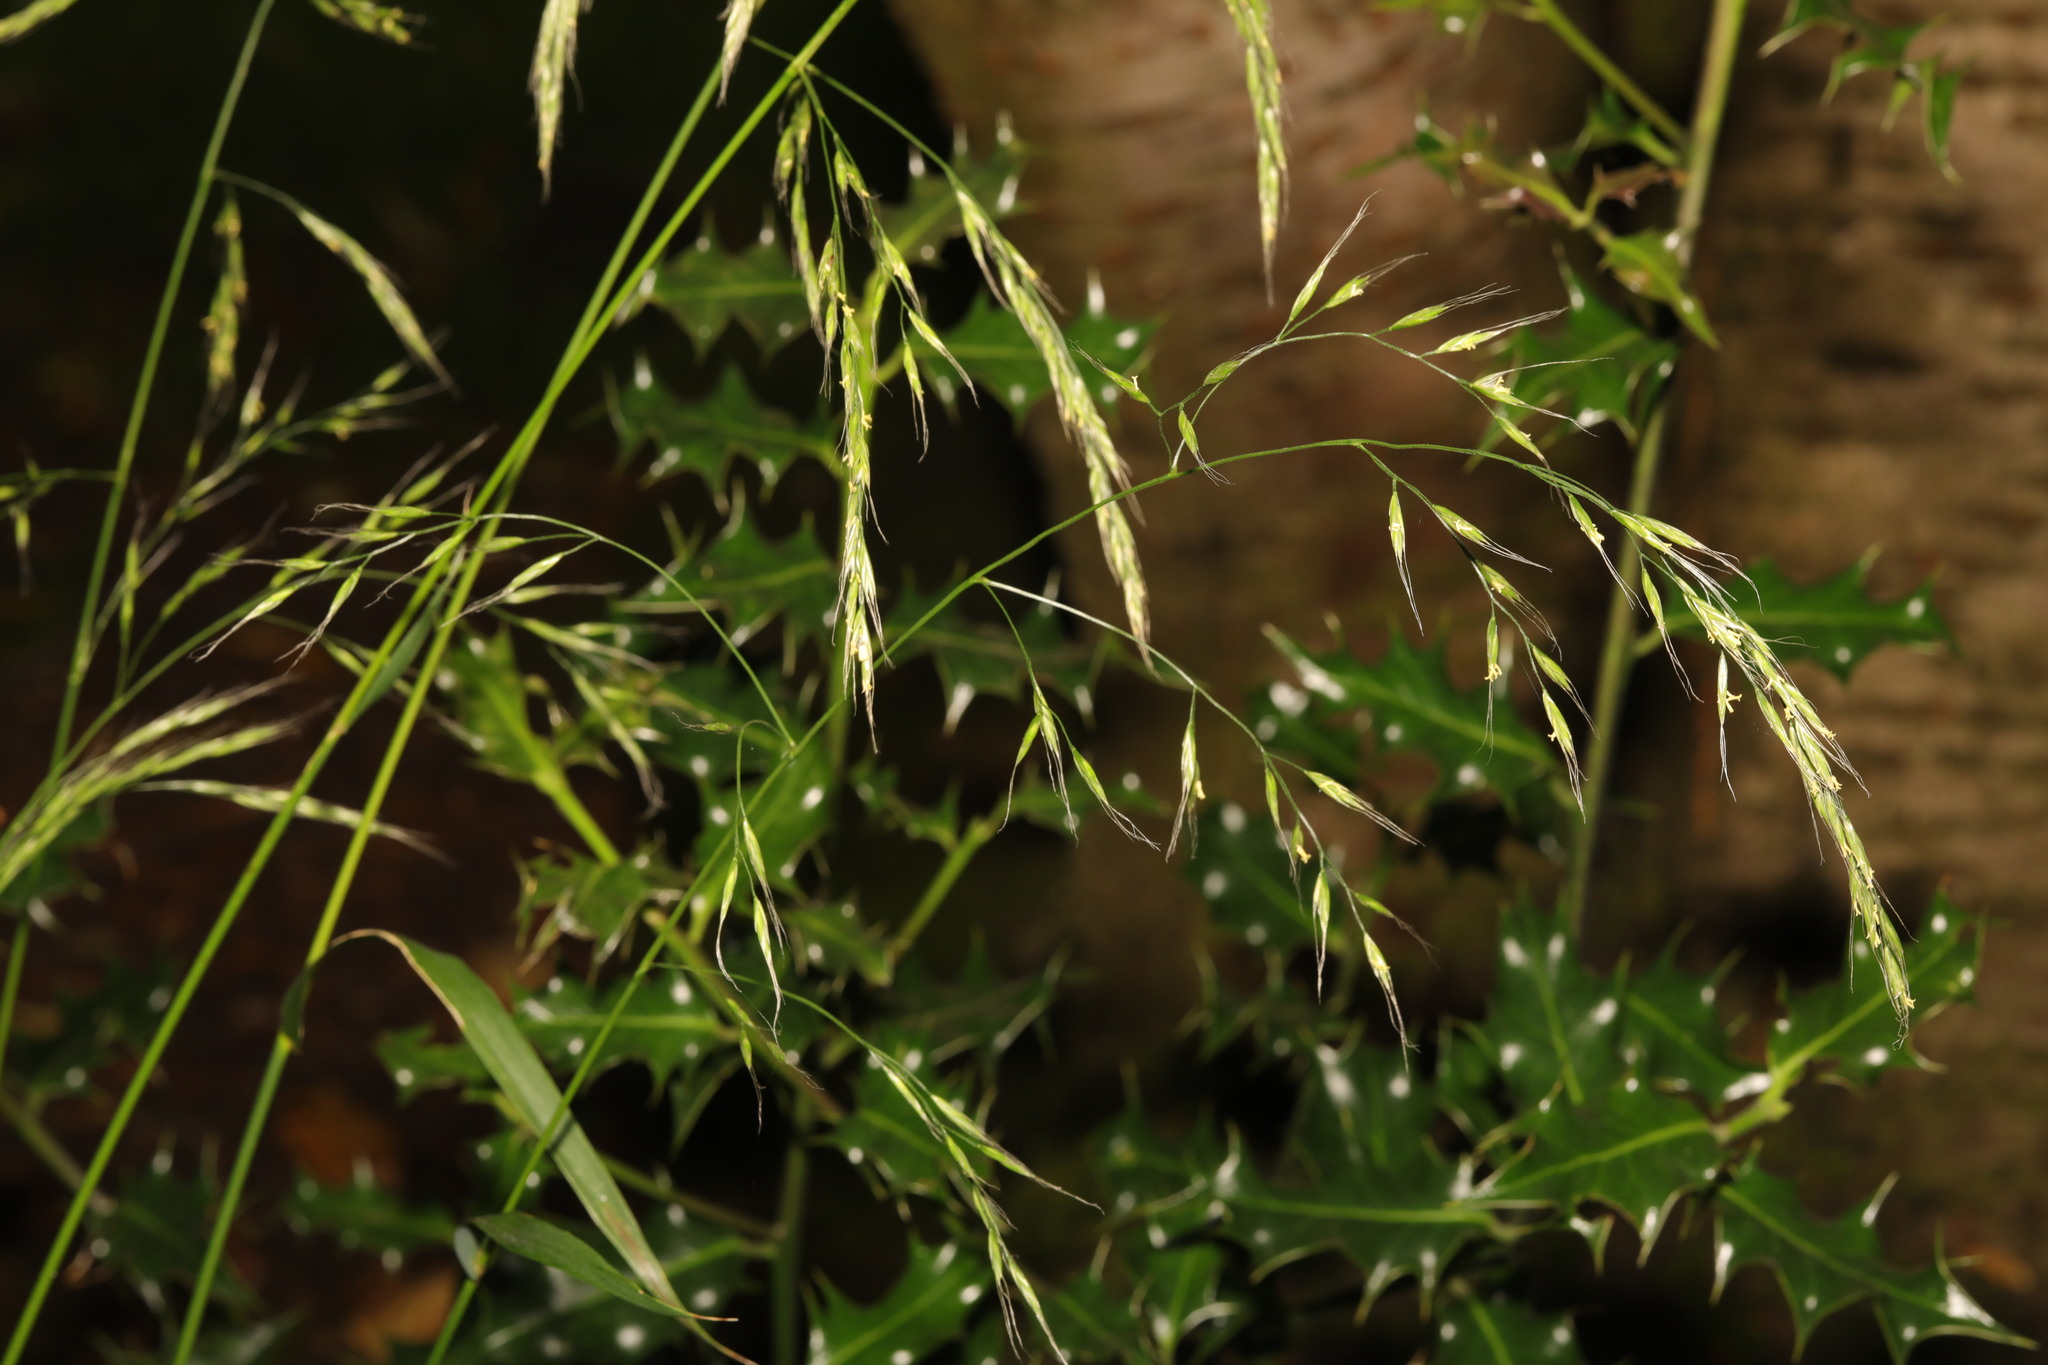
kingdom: Plantae
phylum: Tracheophyta
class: Liliopsida
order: Poales
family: Poaceae
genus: Lolium
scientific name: Lolium giganteum
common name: Giant fescue
